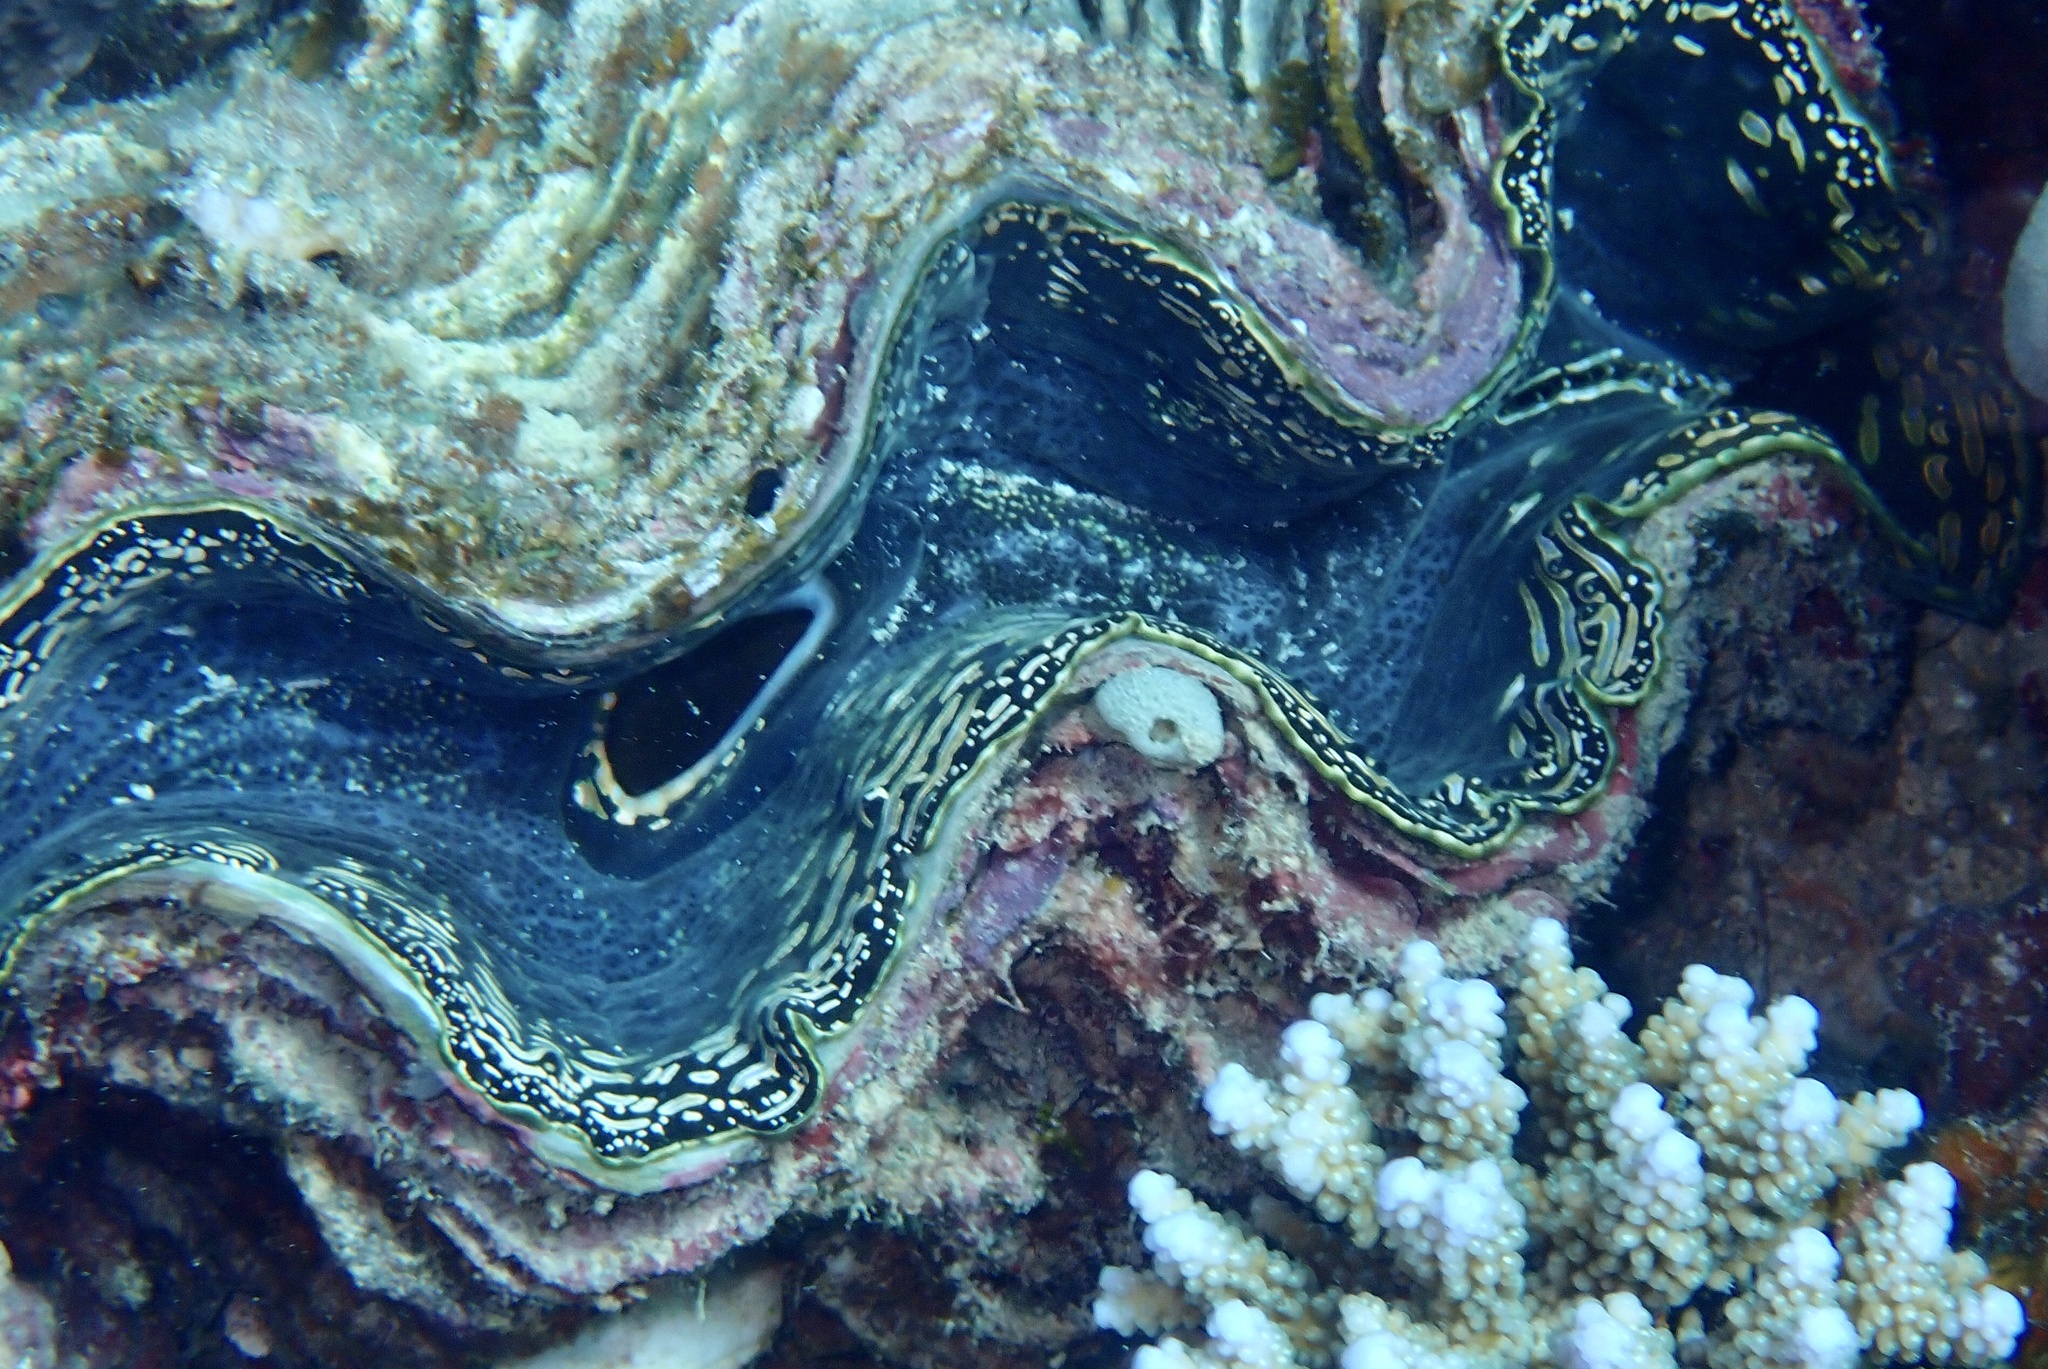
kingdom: Animalia
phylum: Mollusca
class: Bivalvia
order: Cardiida
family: Cardiidae
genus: Tridacna
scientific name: Tridacna squamosa
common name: Fluted clam
